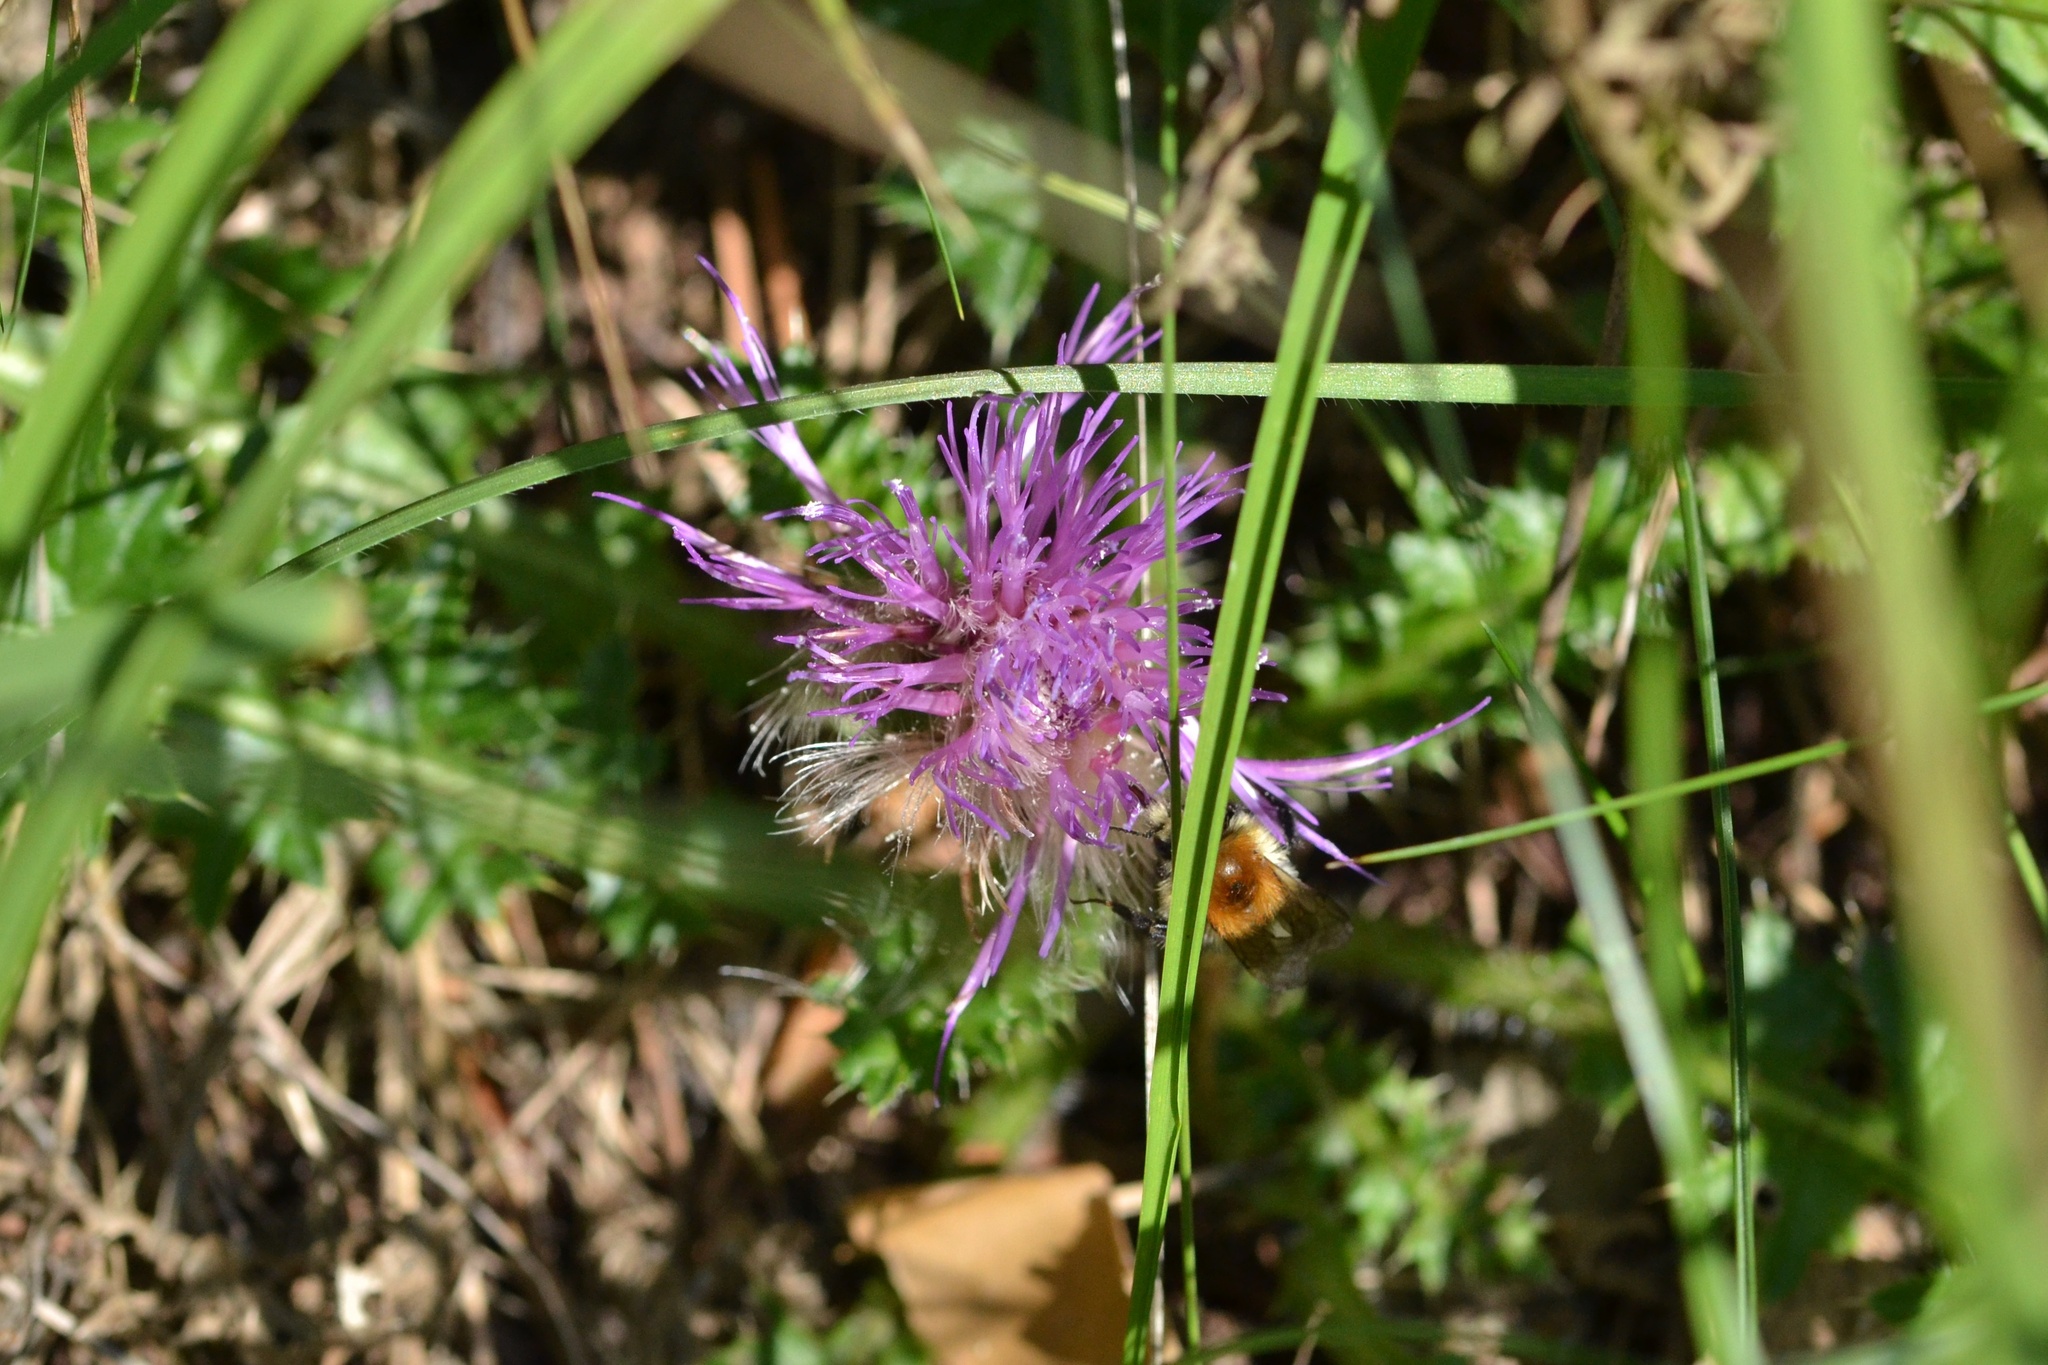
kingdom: Plantae
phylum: Tracheophyta
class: Magnoliopsida
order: Asterales
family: Asteraceae
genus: Cirsium
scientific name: Cirsium acaulon
